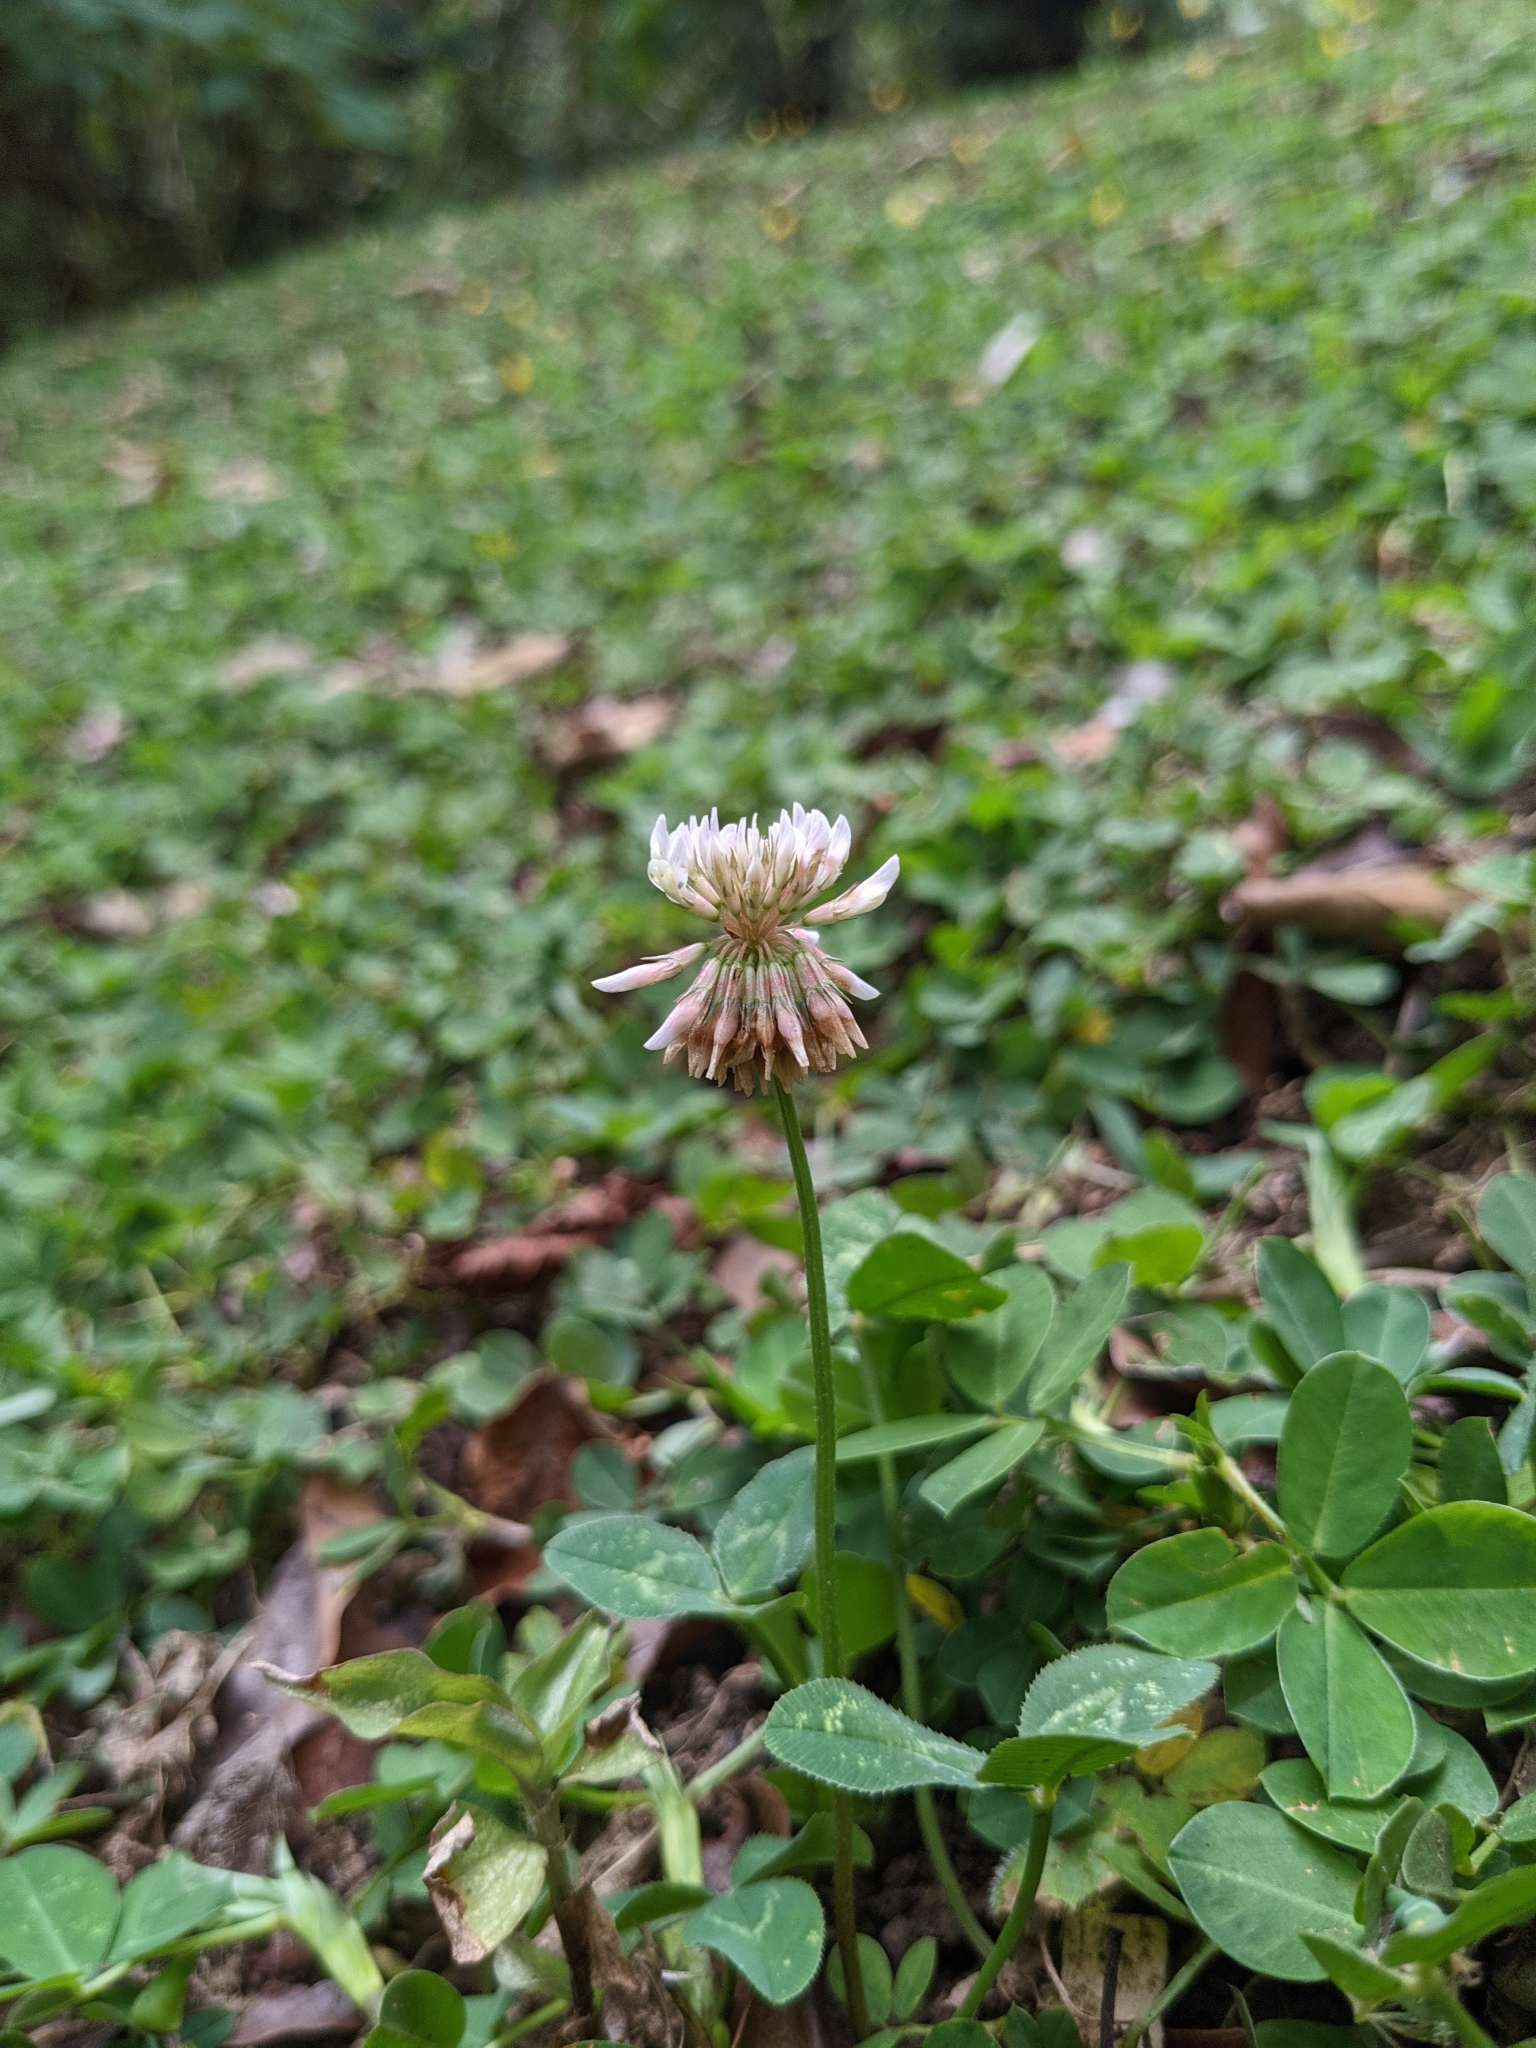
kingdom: Plantae
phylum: Tracheophyta
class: Magnoliopsida
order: Fabales
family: Fabaceae
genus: Trifolium
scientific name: Trifolium repens
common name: White clover
